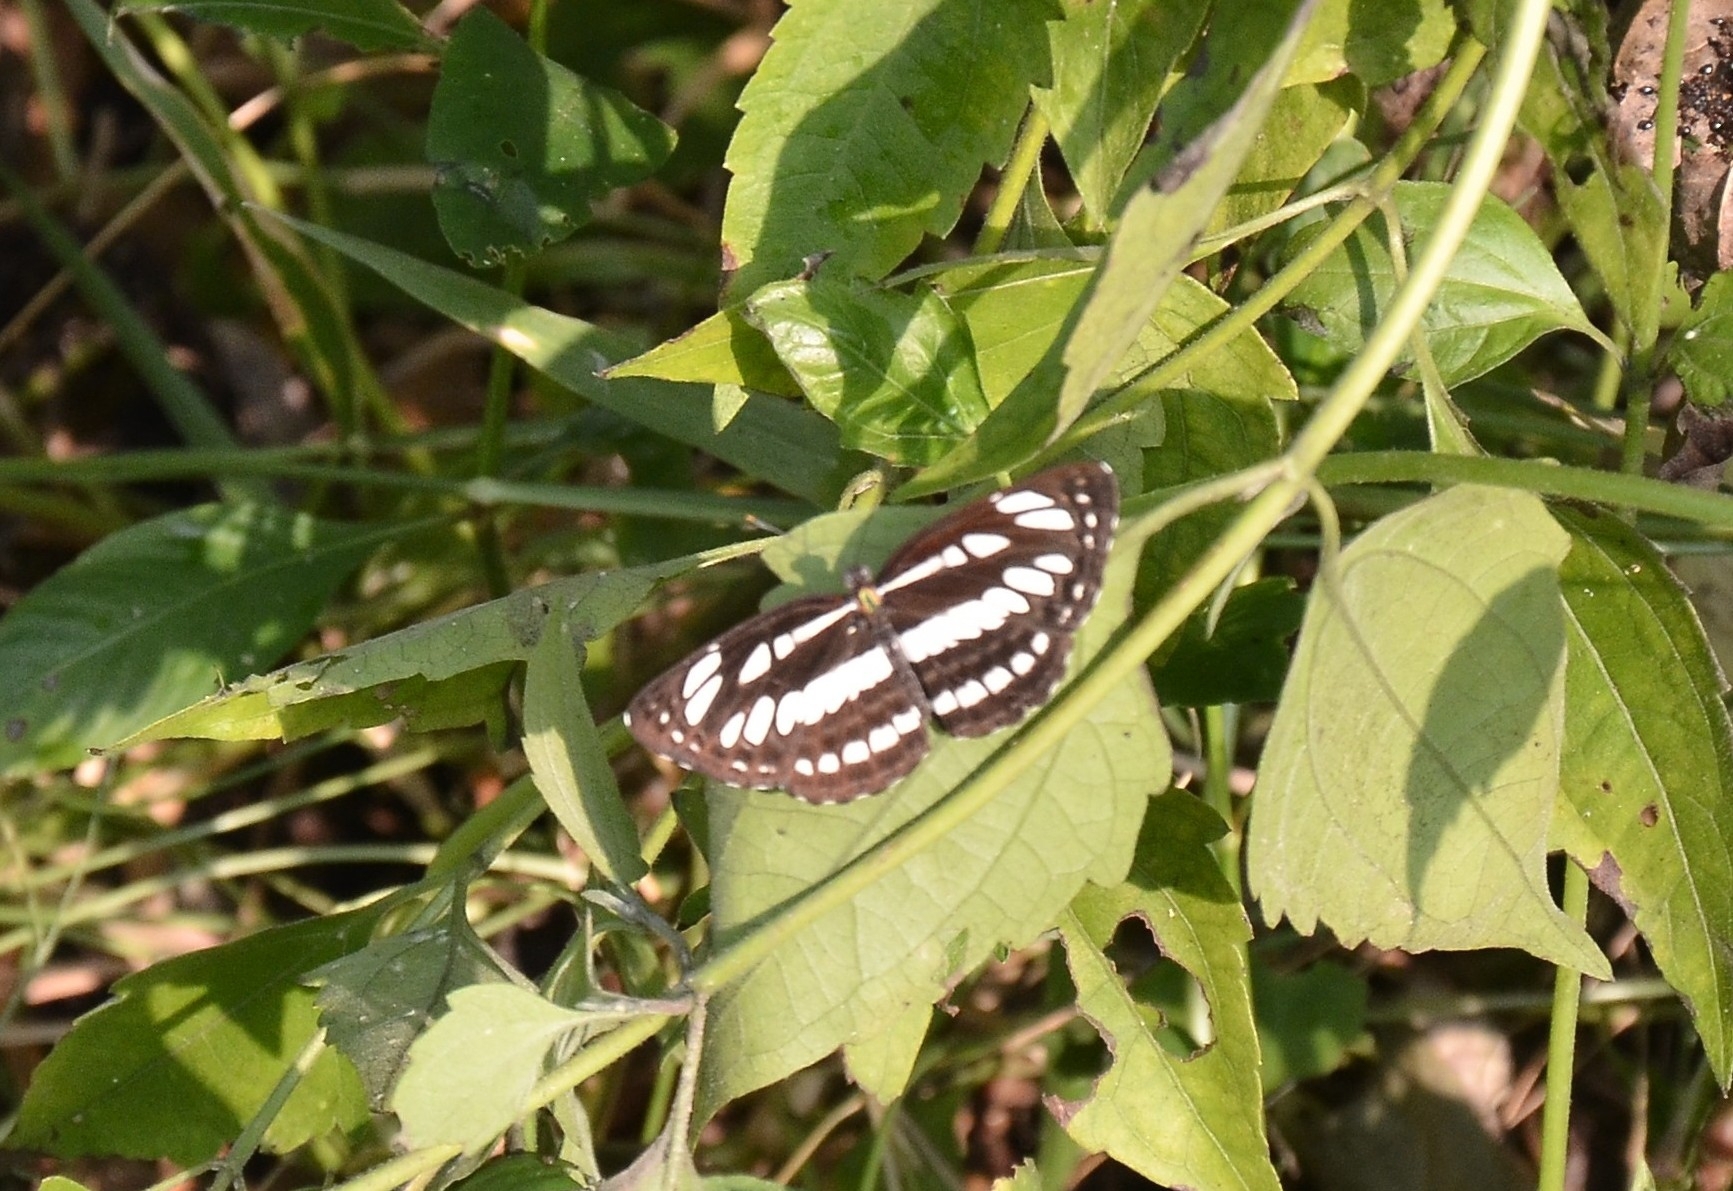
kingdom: Animalia
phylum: Arthropoda
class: Insecta
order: Lepidoptera
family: Nymphalidae
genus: Neptis
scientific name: Neptis hylas
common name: Common sailer
